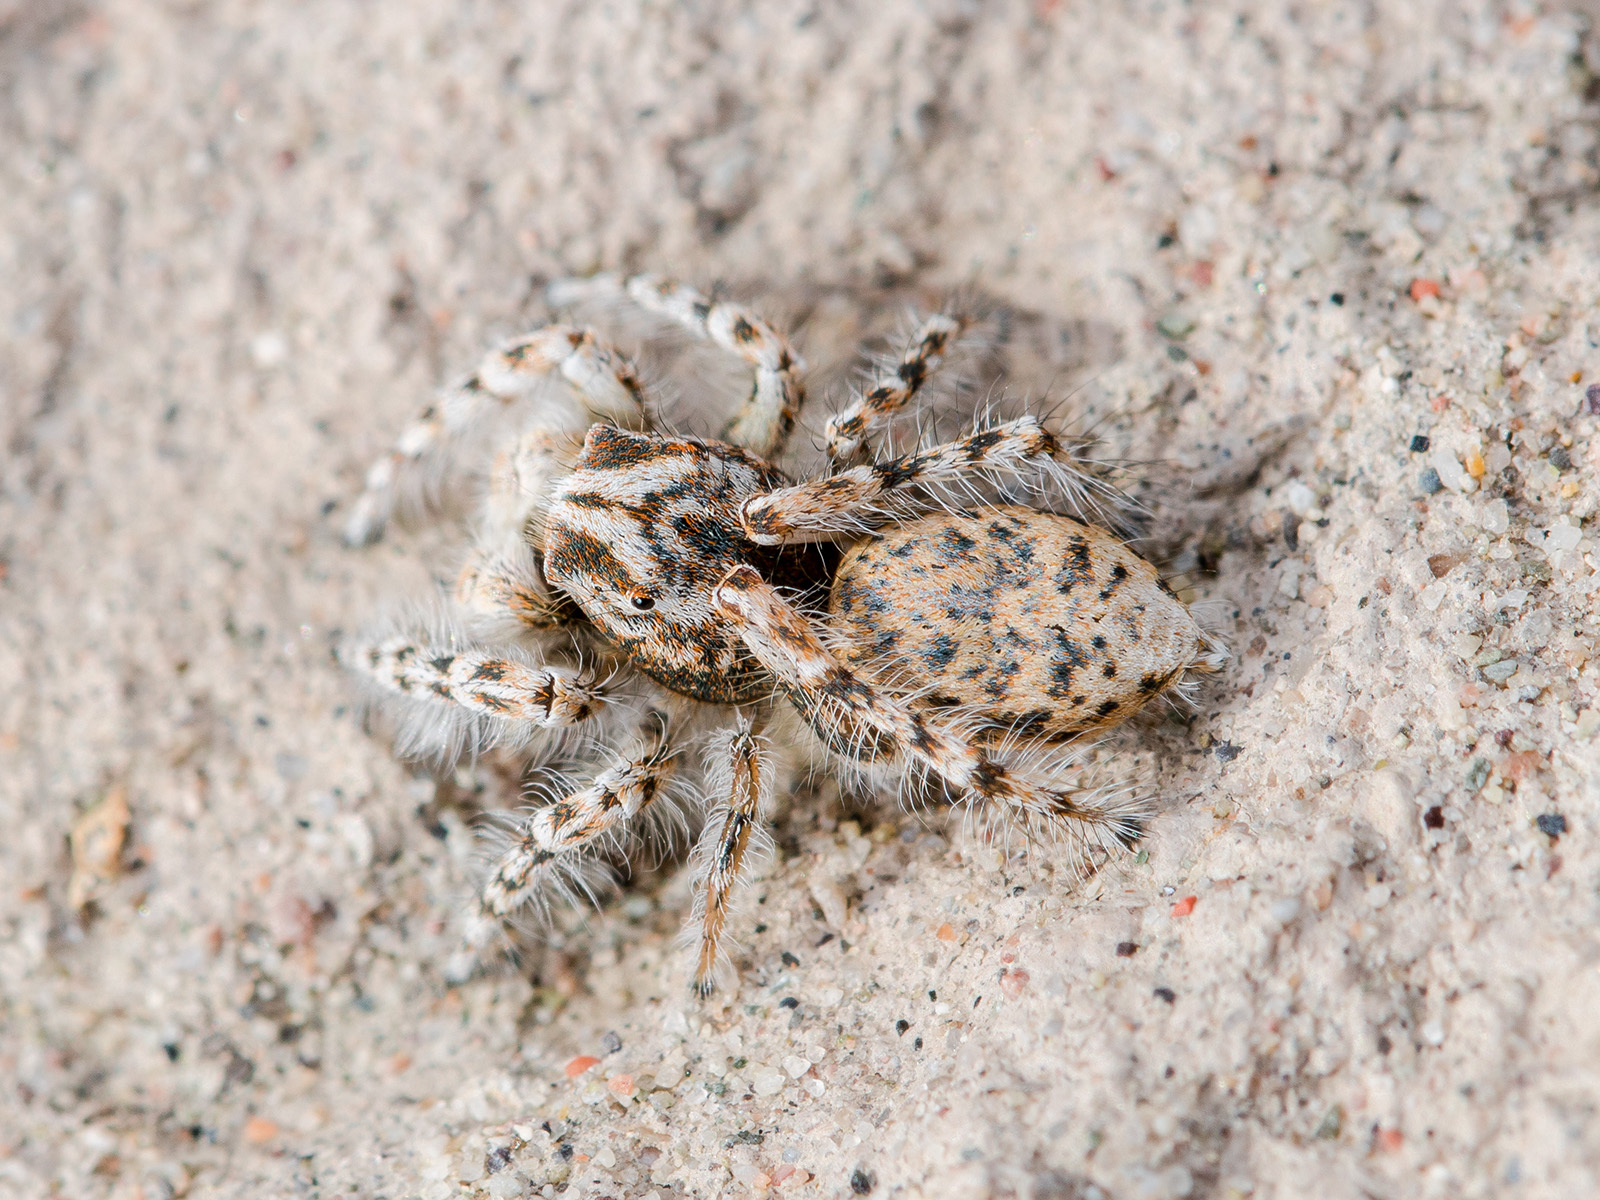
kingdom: Animalia
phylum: Arthropoda
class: Arachnida
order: Araneae
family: Salticidae
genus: Yllenus
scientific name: Yllenus uiguricus
